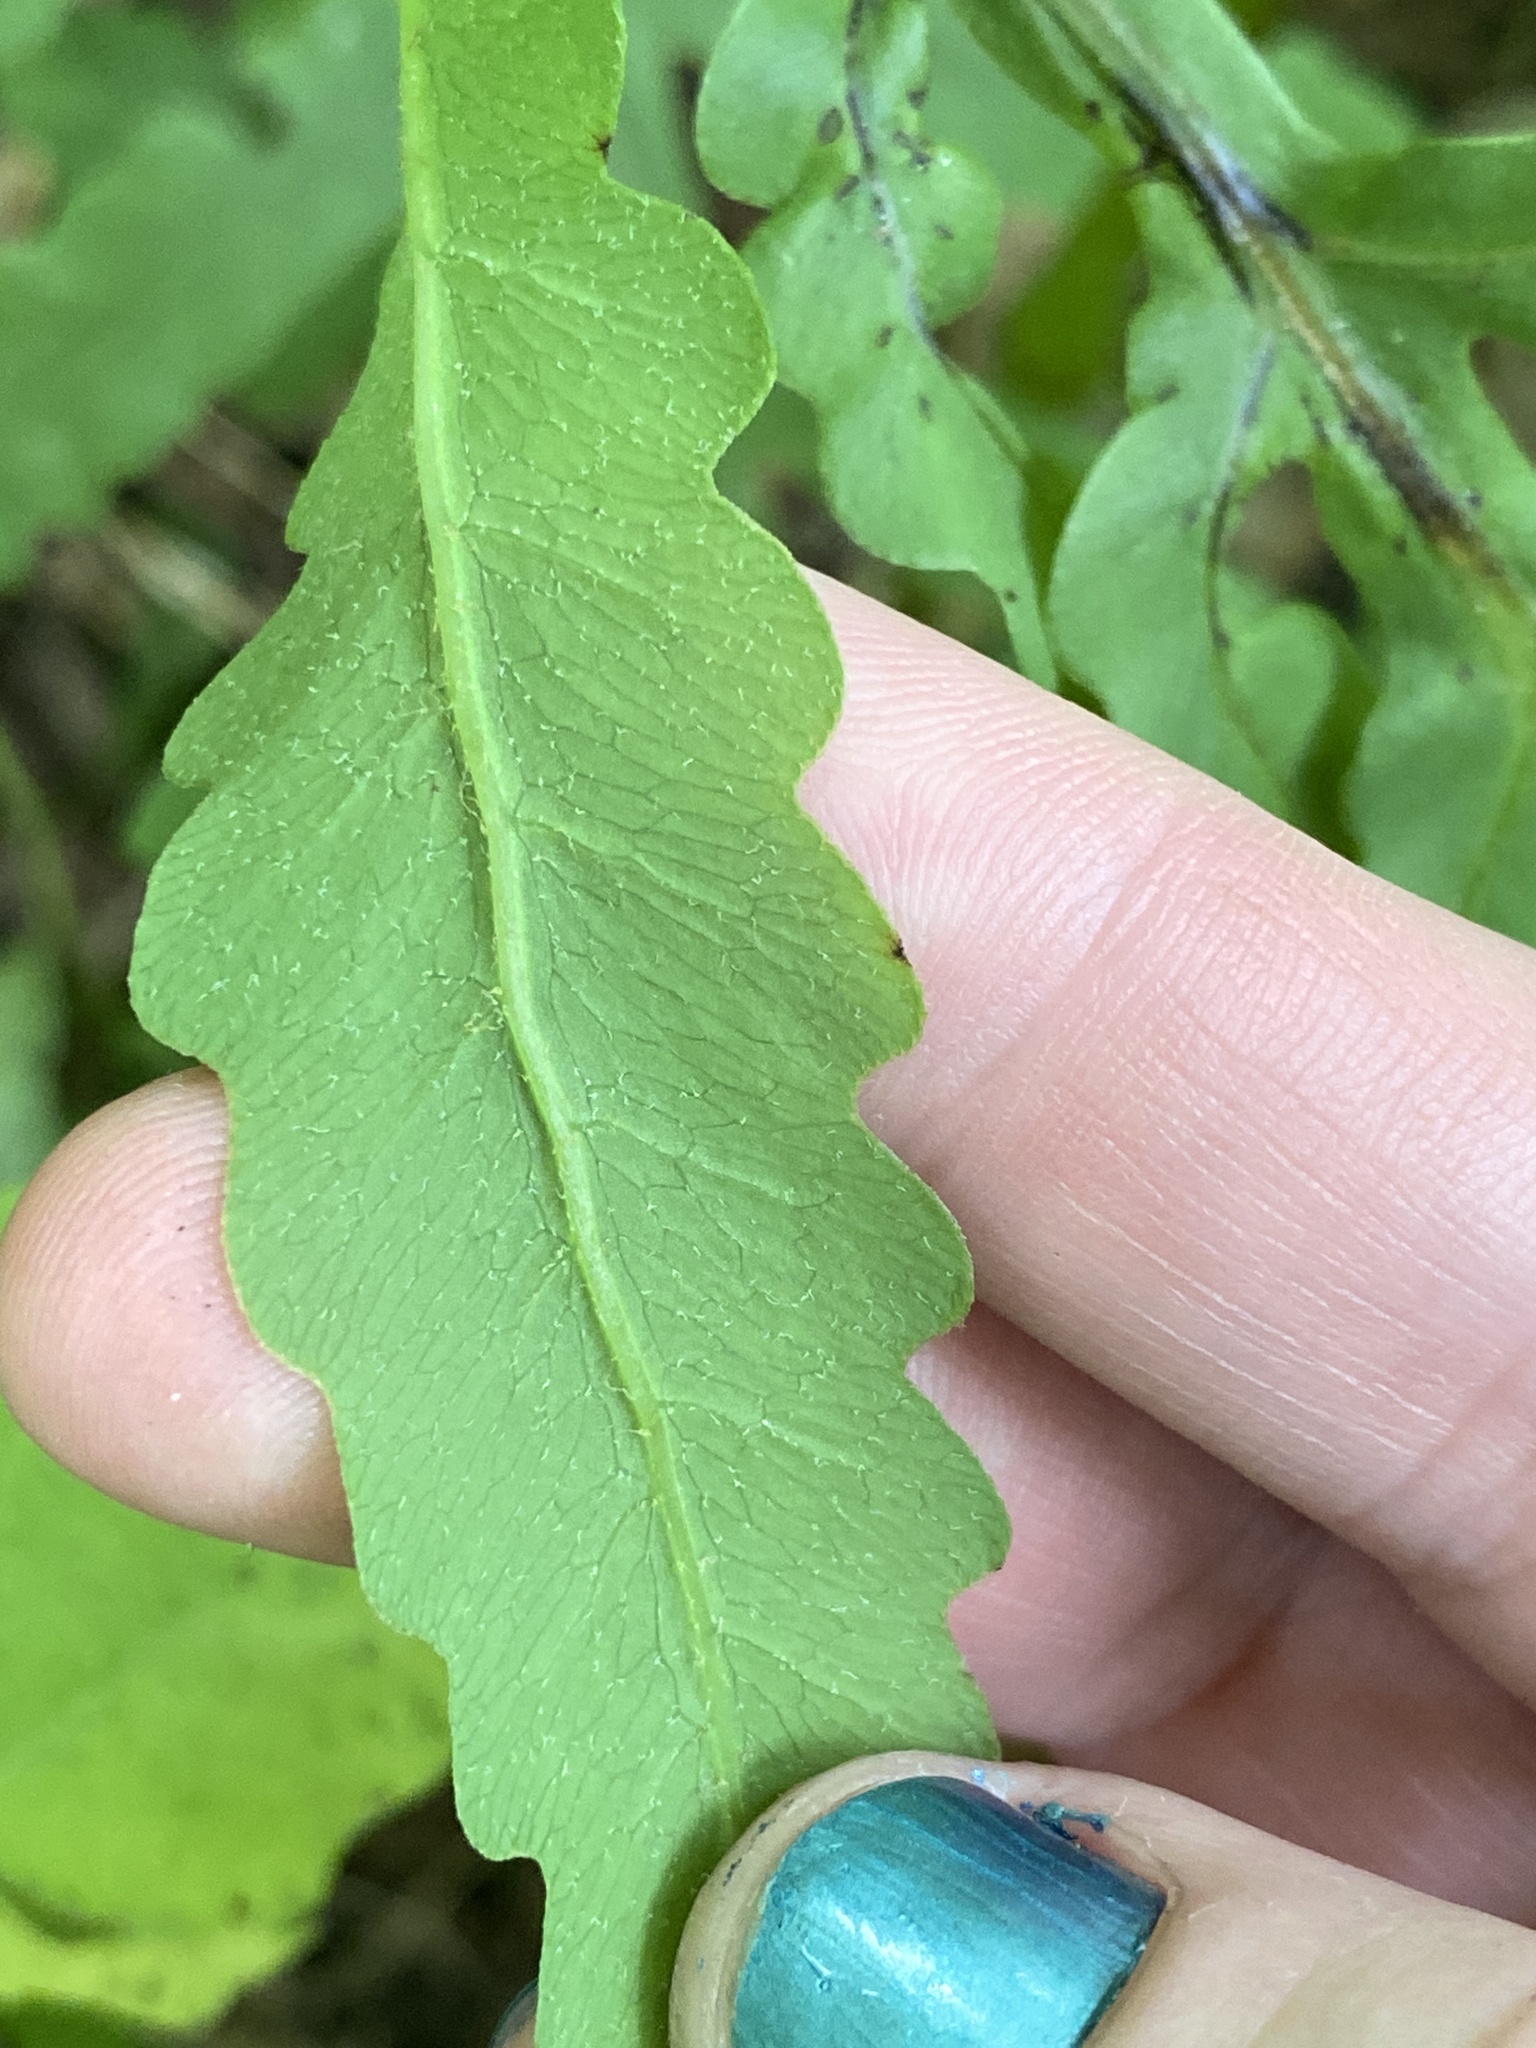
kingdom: Plantae
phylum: Tracheophyta
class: Polypodiopsida
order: Polypodiales
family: Onocleaceae
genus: Onoclea
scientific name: Onoclea sensibilis
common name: Sensitive fern
